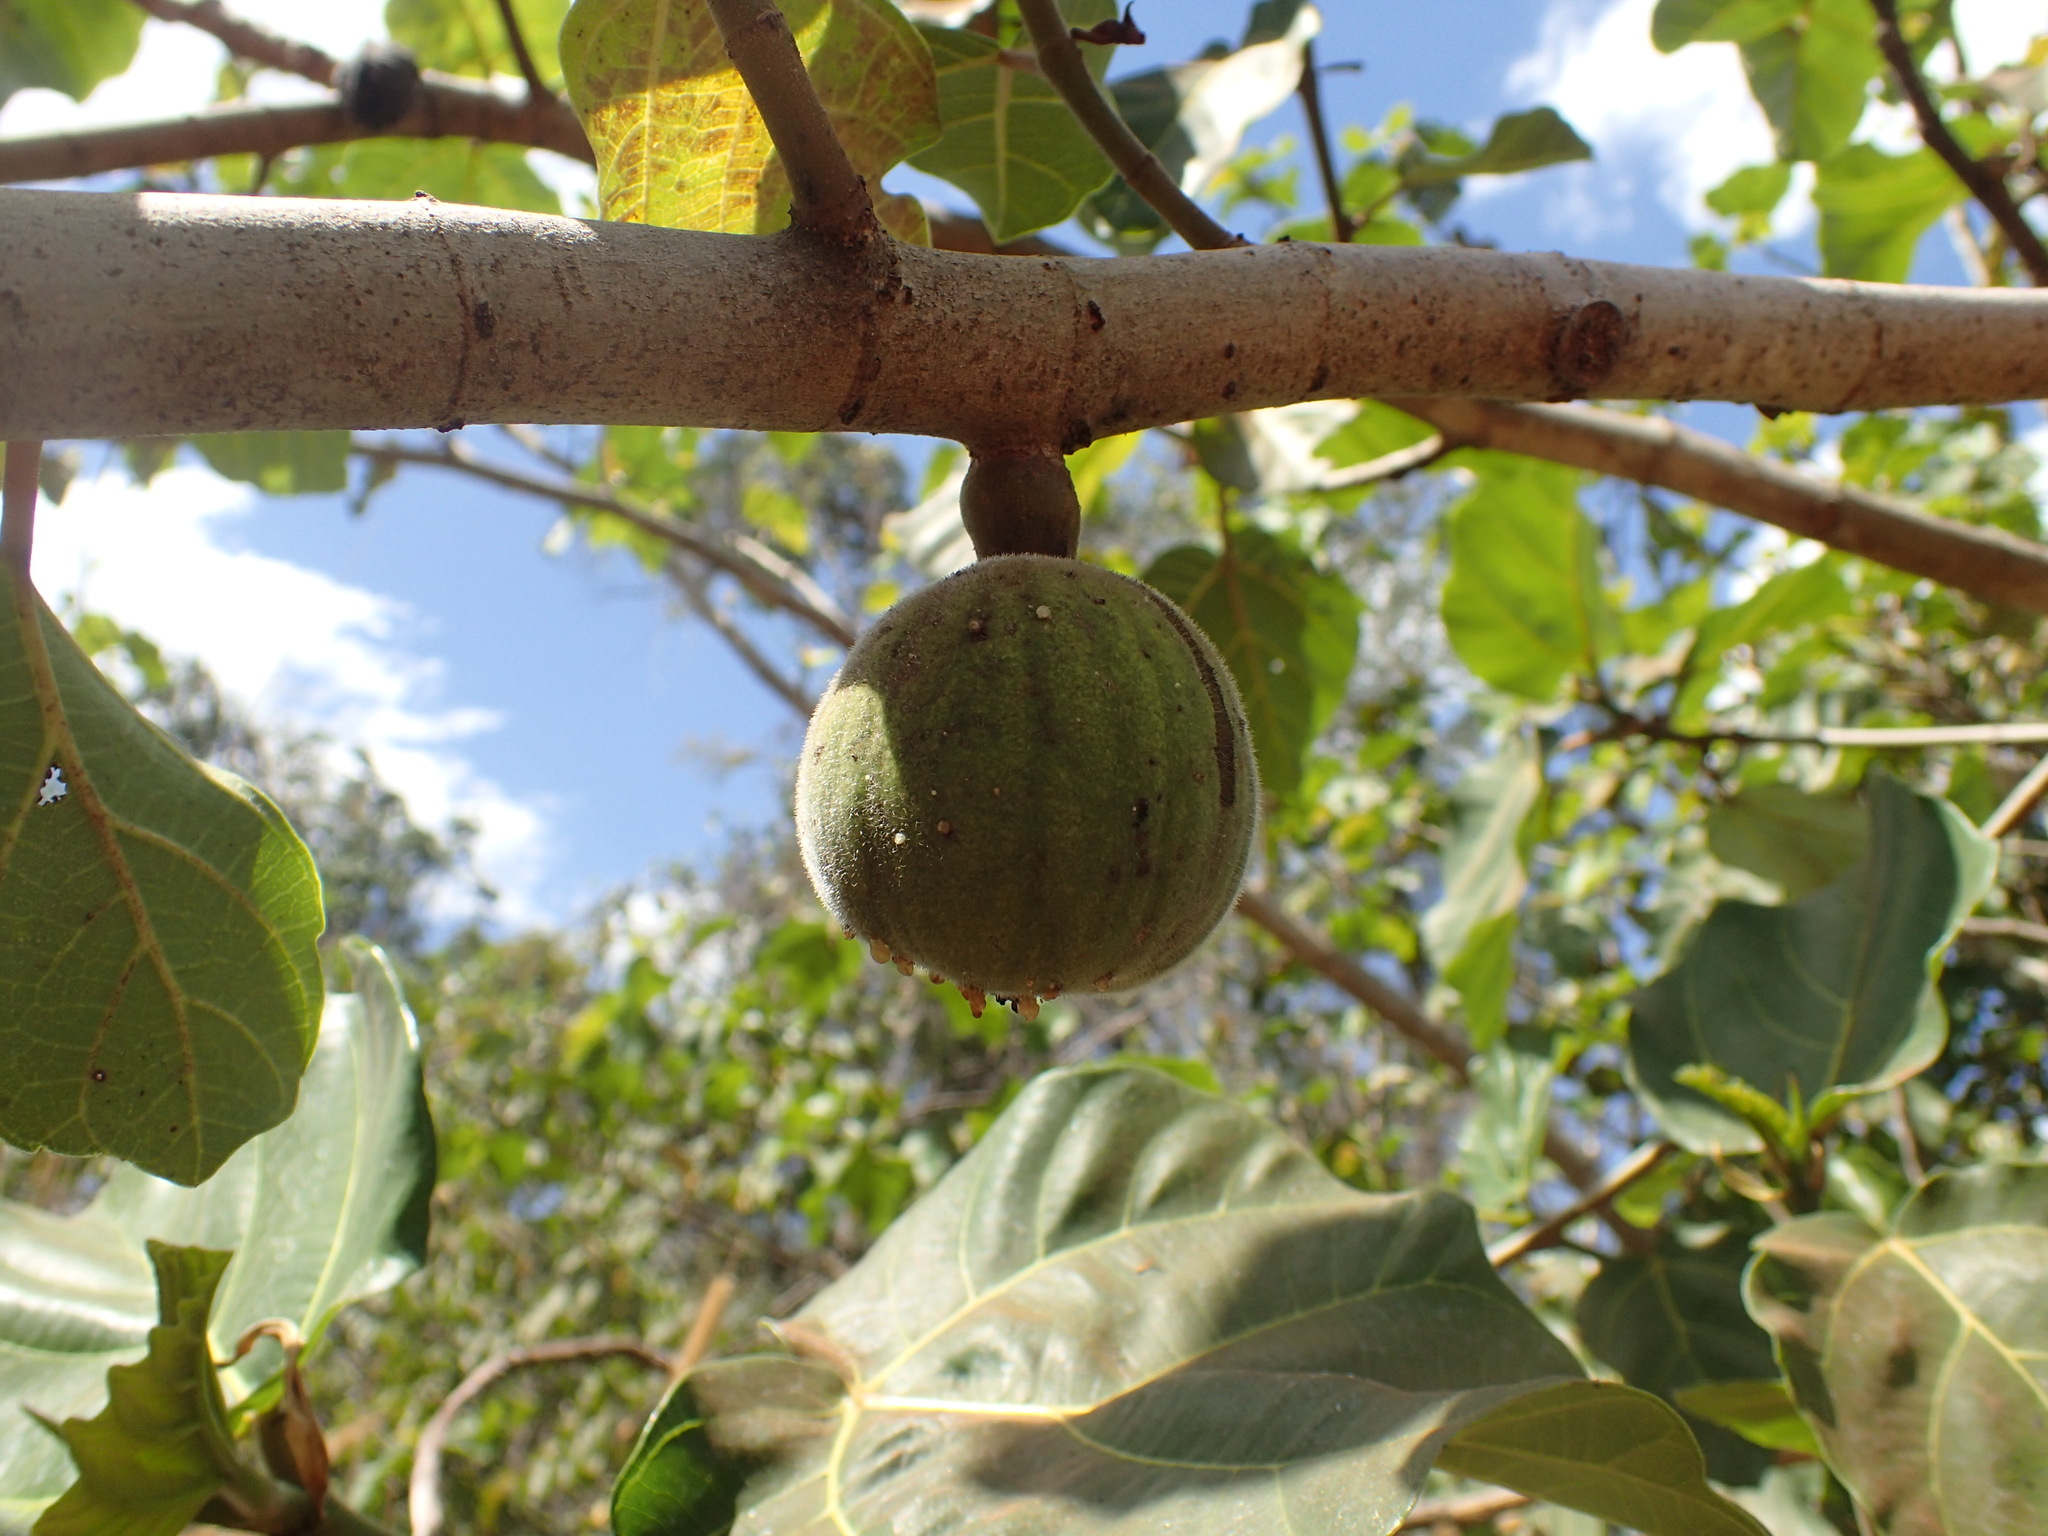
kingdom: Plantae
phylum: Tracheophyta
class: Magnoliopsida
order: Rosales
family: Moraceae
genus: Ficus
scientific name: Ficus vallis-choudae
